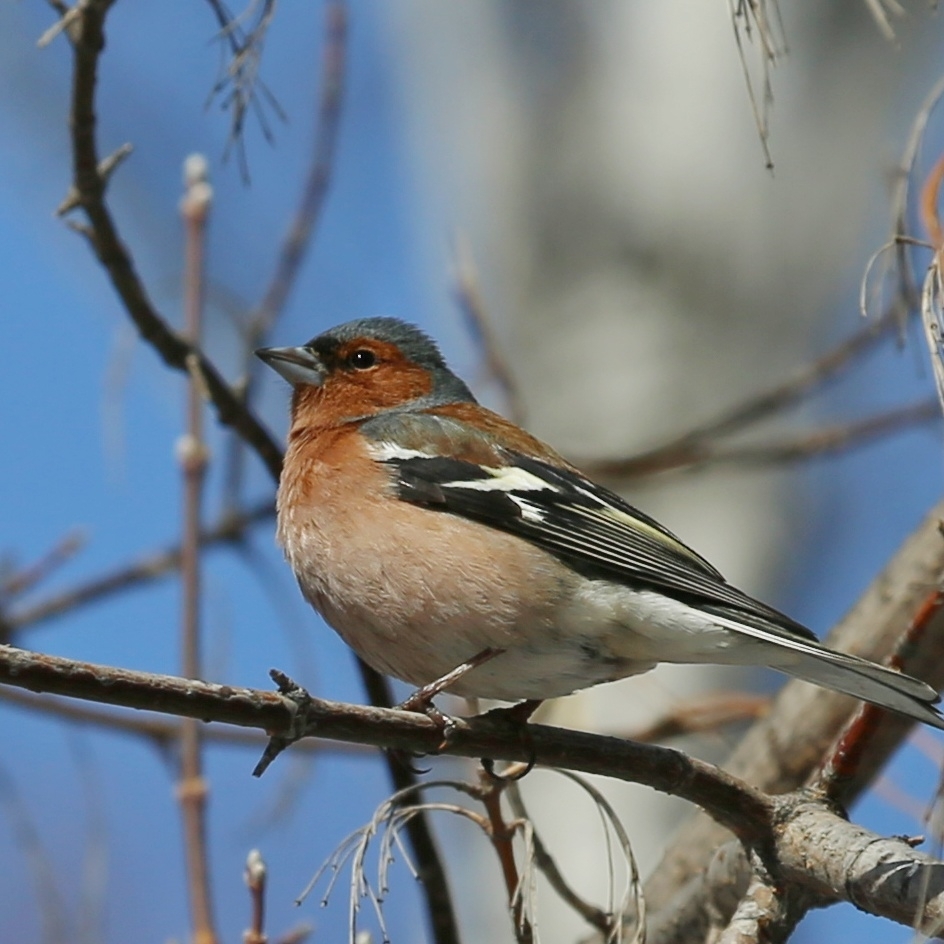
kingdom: Animalia
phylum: Chordata
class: Aves
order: Passeriformes
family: Fringillidae
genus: Fringilla
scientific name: Fringilla coelebs
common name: Common chaffinch
